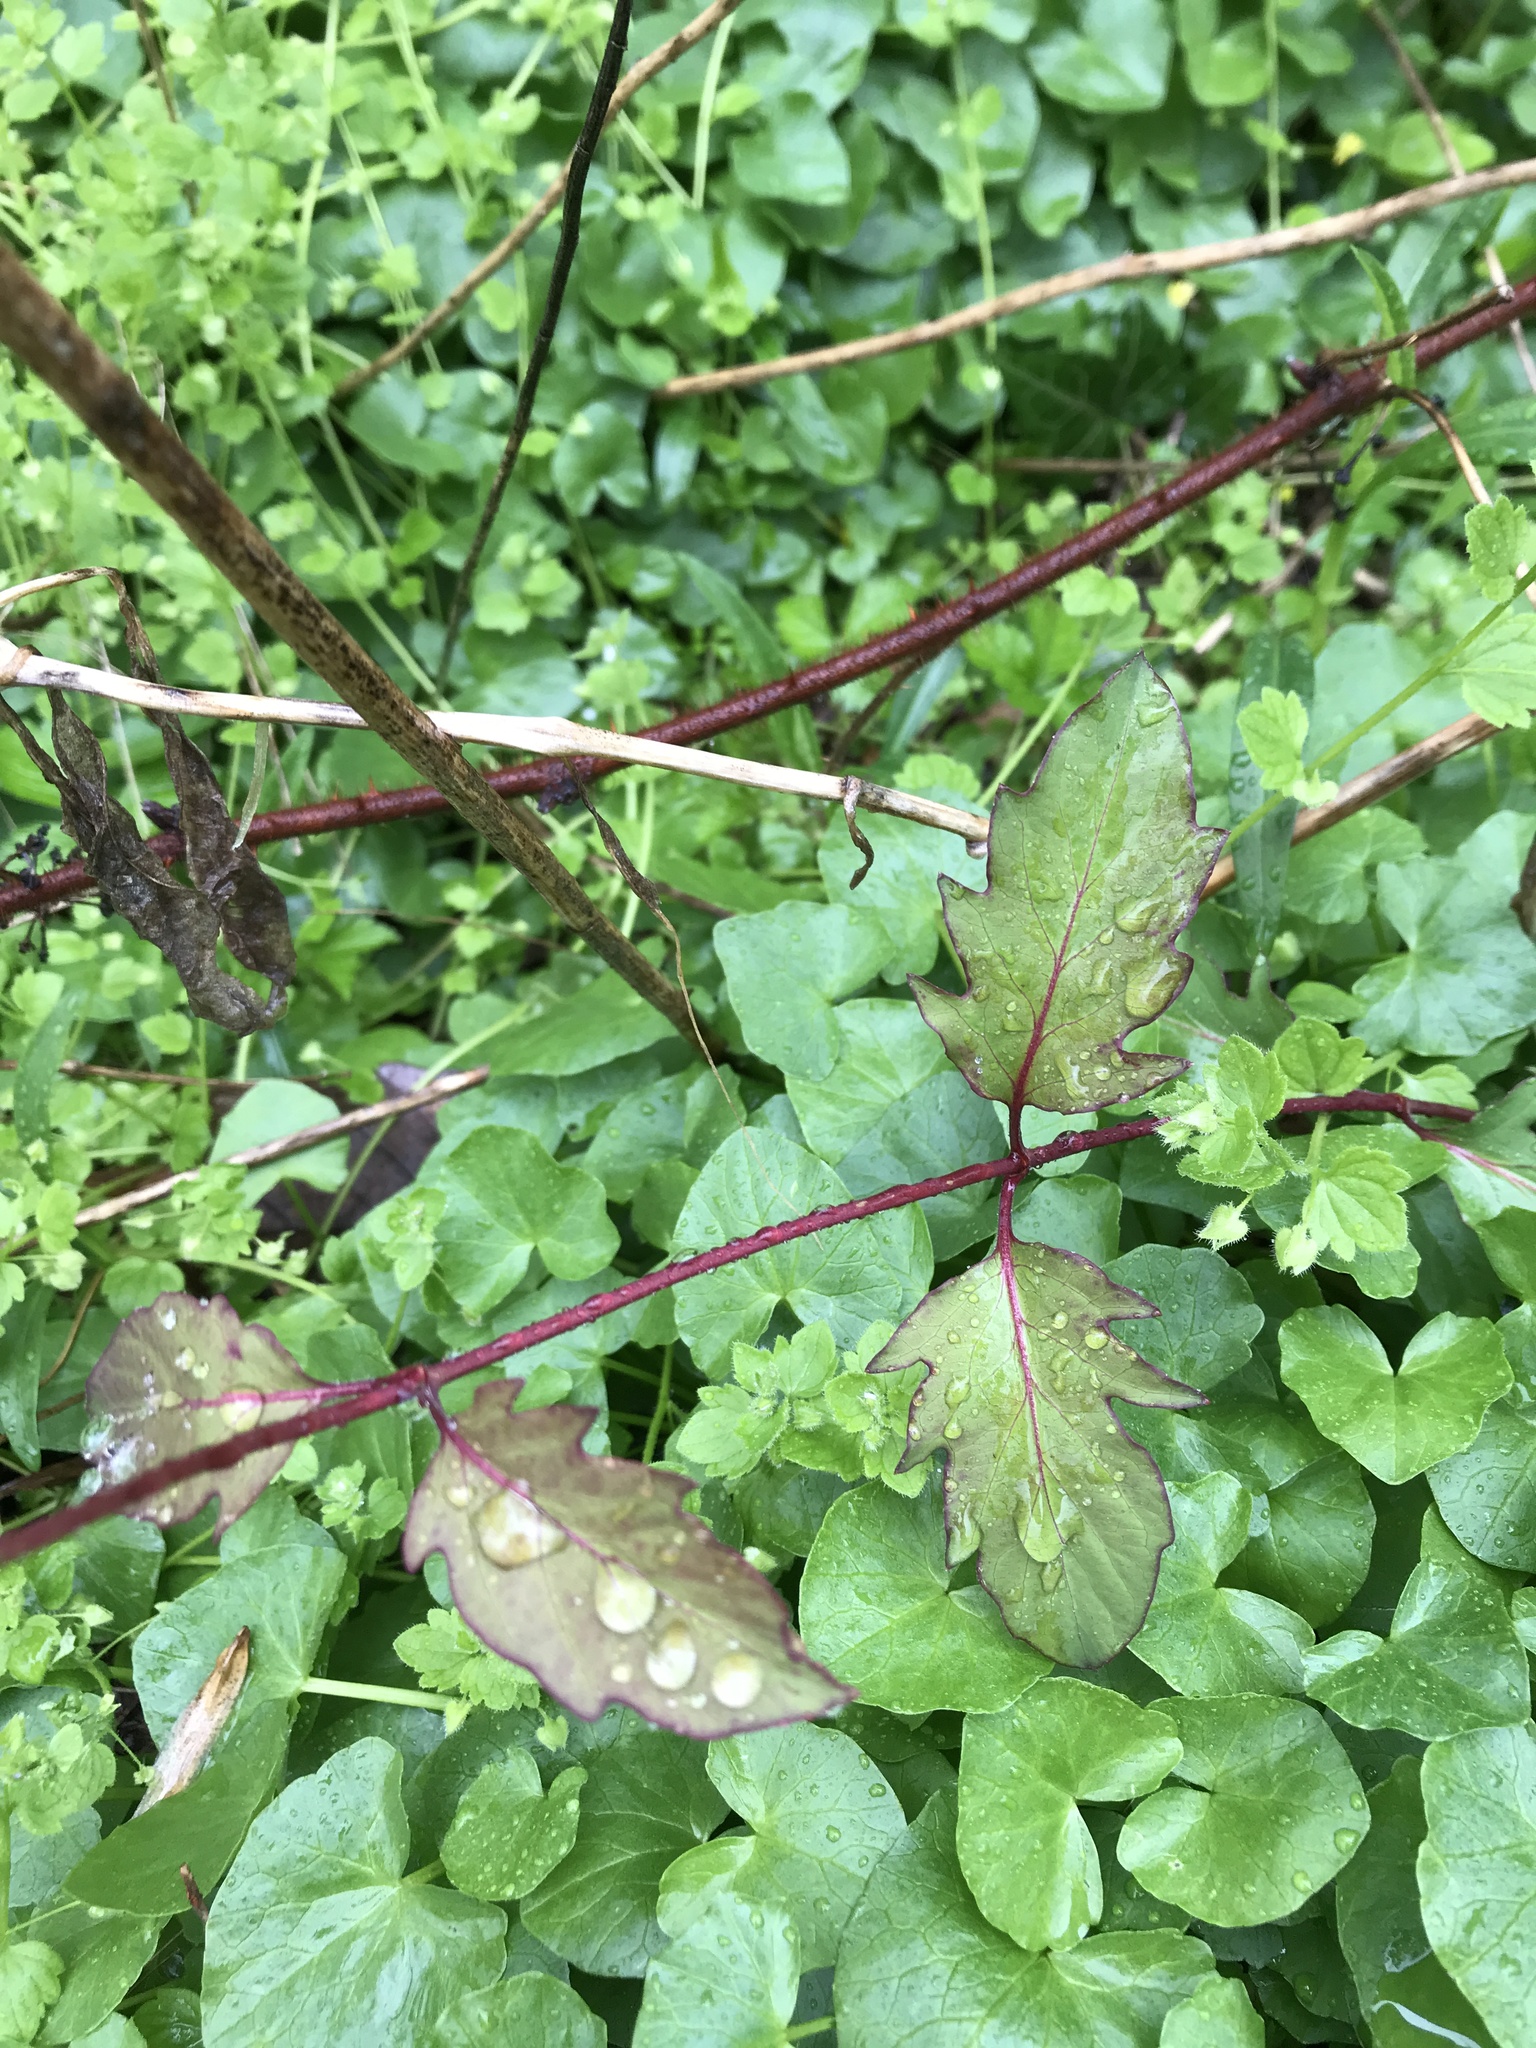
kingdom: Plantae
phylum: Tracheophyta
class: Magnoliopsida
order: Dipsacales
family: Caprifoliaceae
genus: Lonicera
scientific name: Lonicera japonica
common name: Japanese honeysuckle
